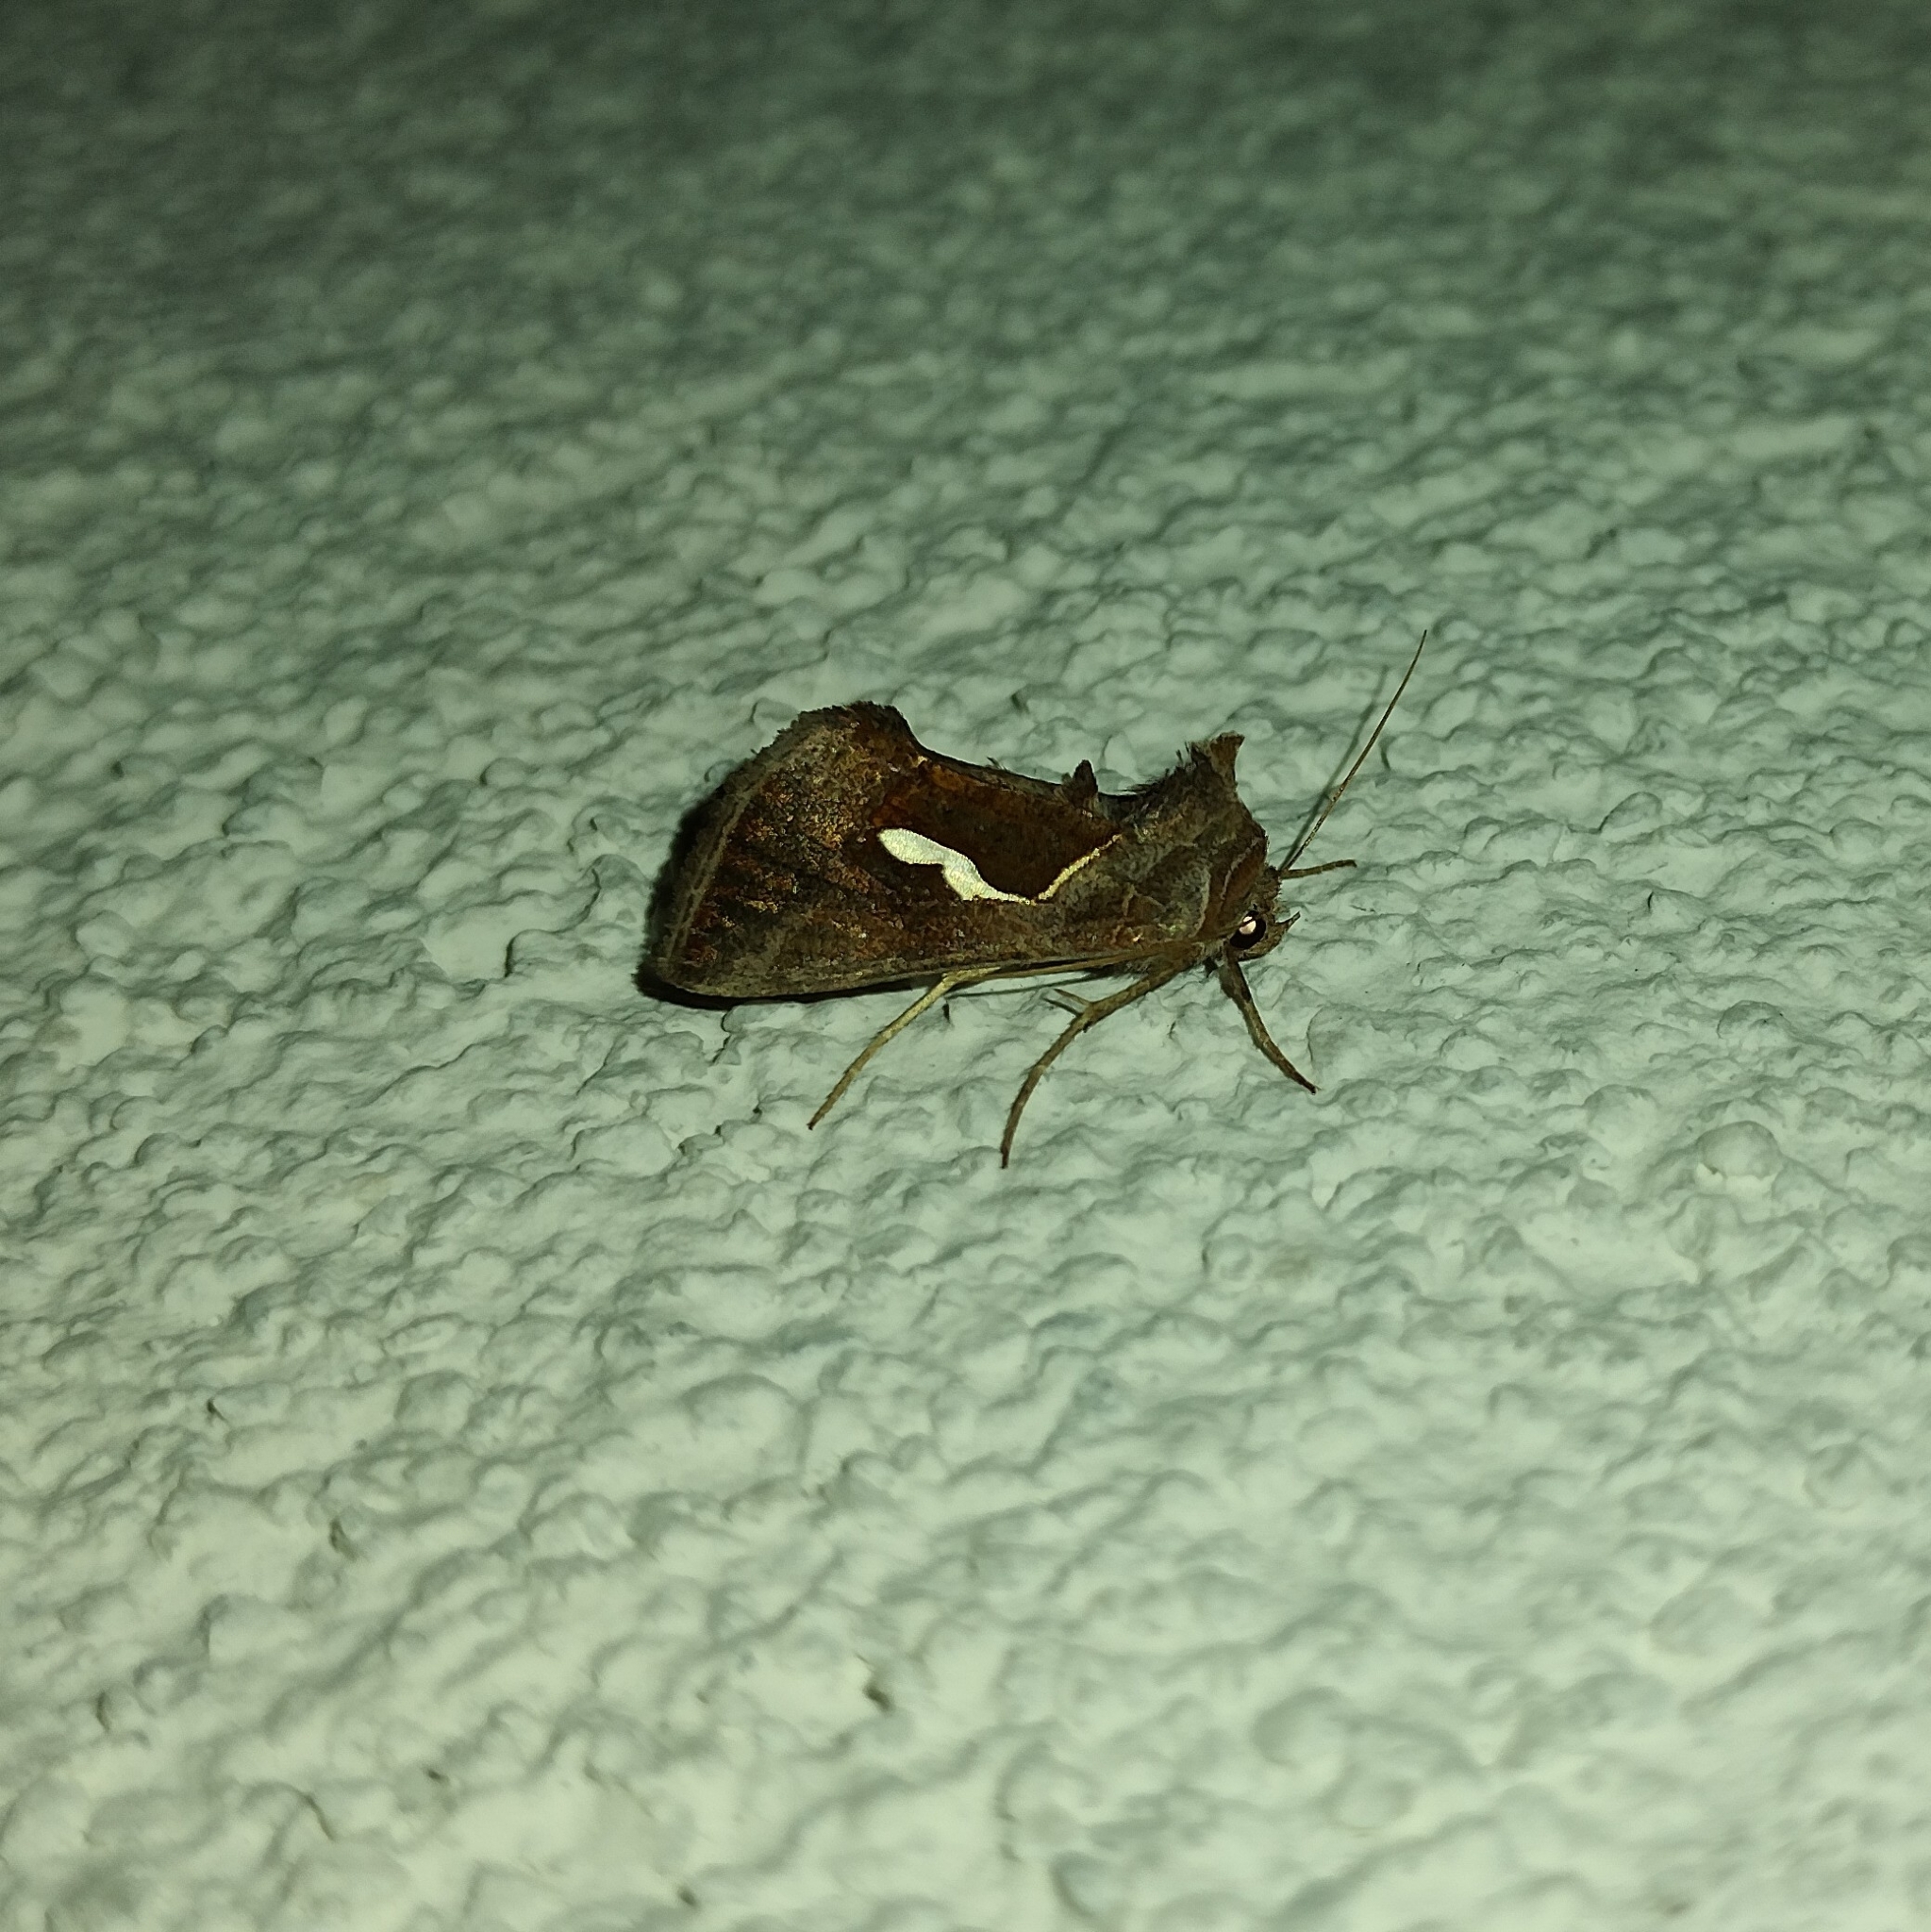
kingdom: Animalia
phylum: Arthropoda
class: Insecta
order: Lepidoptera
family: Noctuidae
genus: Macdunnoughia
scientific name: Macdunnoughia confusa
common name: Dewick's plusia
